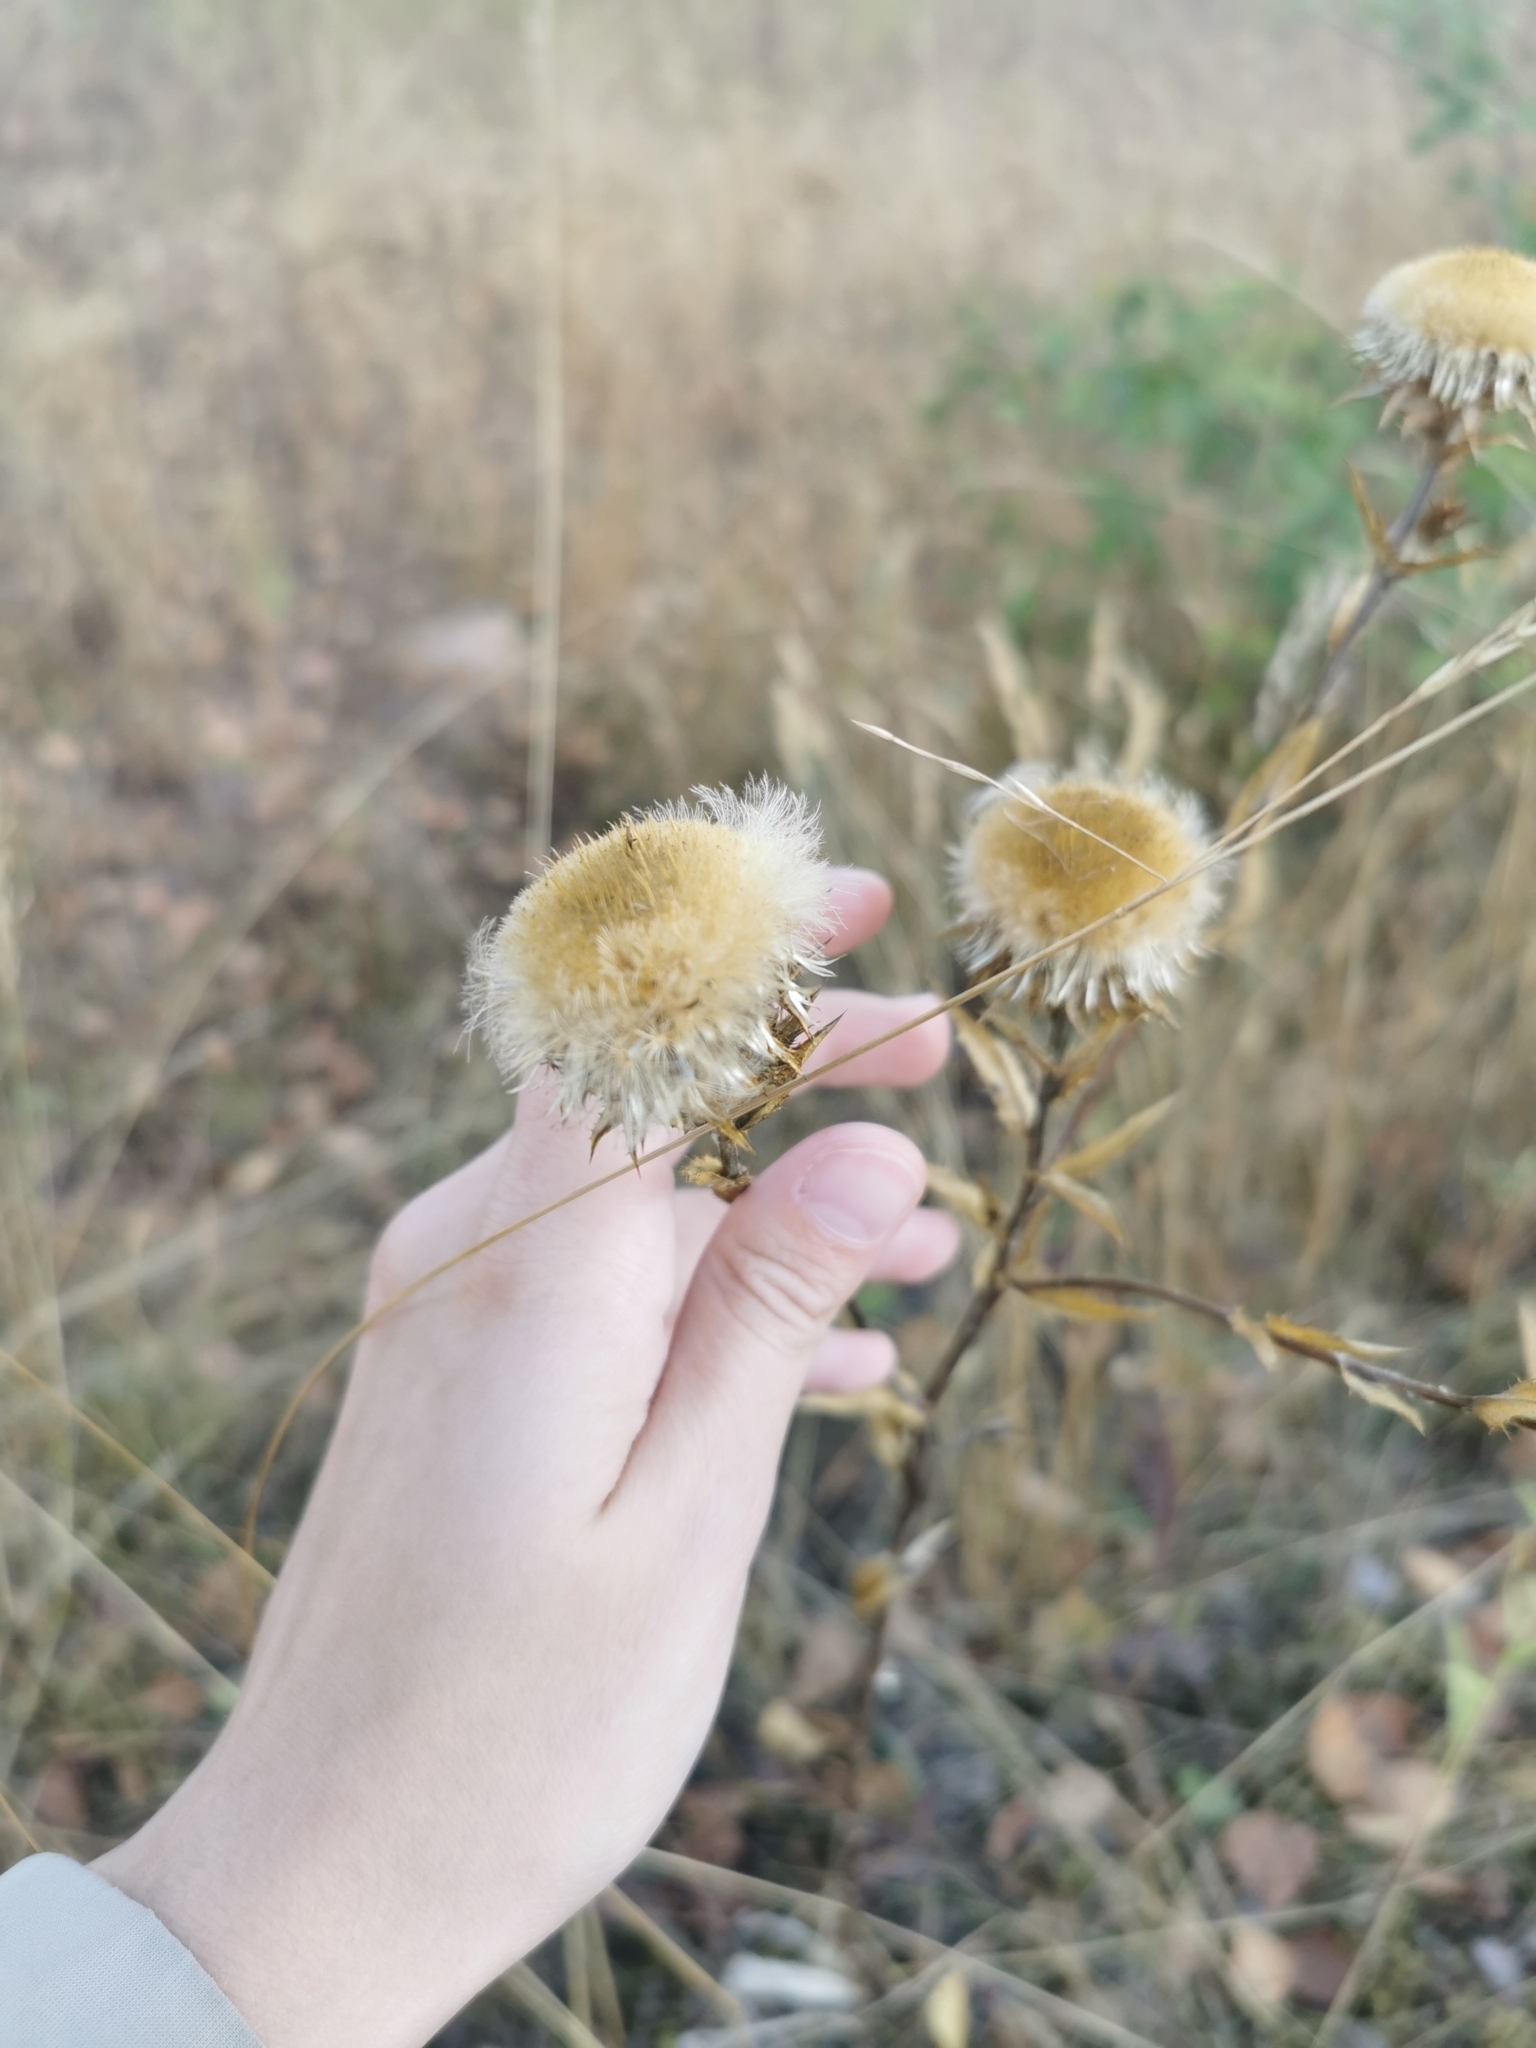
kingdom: Plantae
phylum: Tracheophyta
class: Magnoliopsida
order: Asterales
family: Asteraceae
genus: Carlina
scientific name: Carlina biebersteinii
